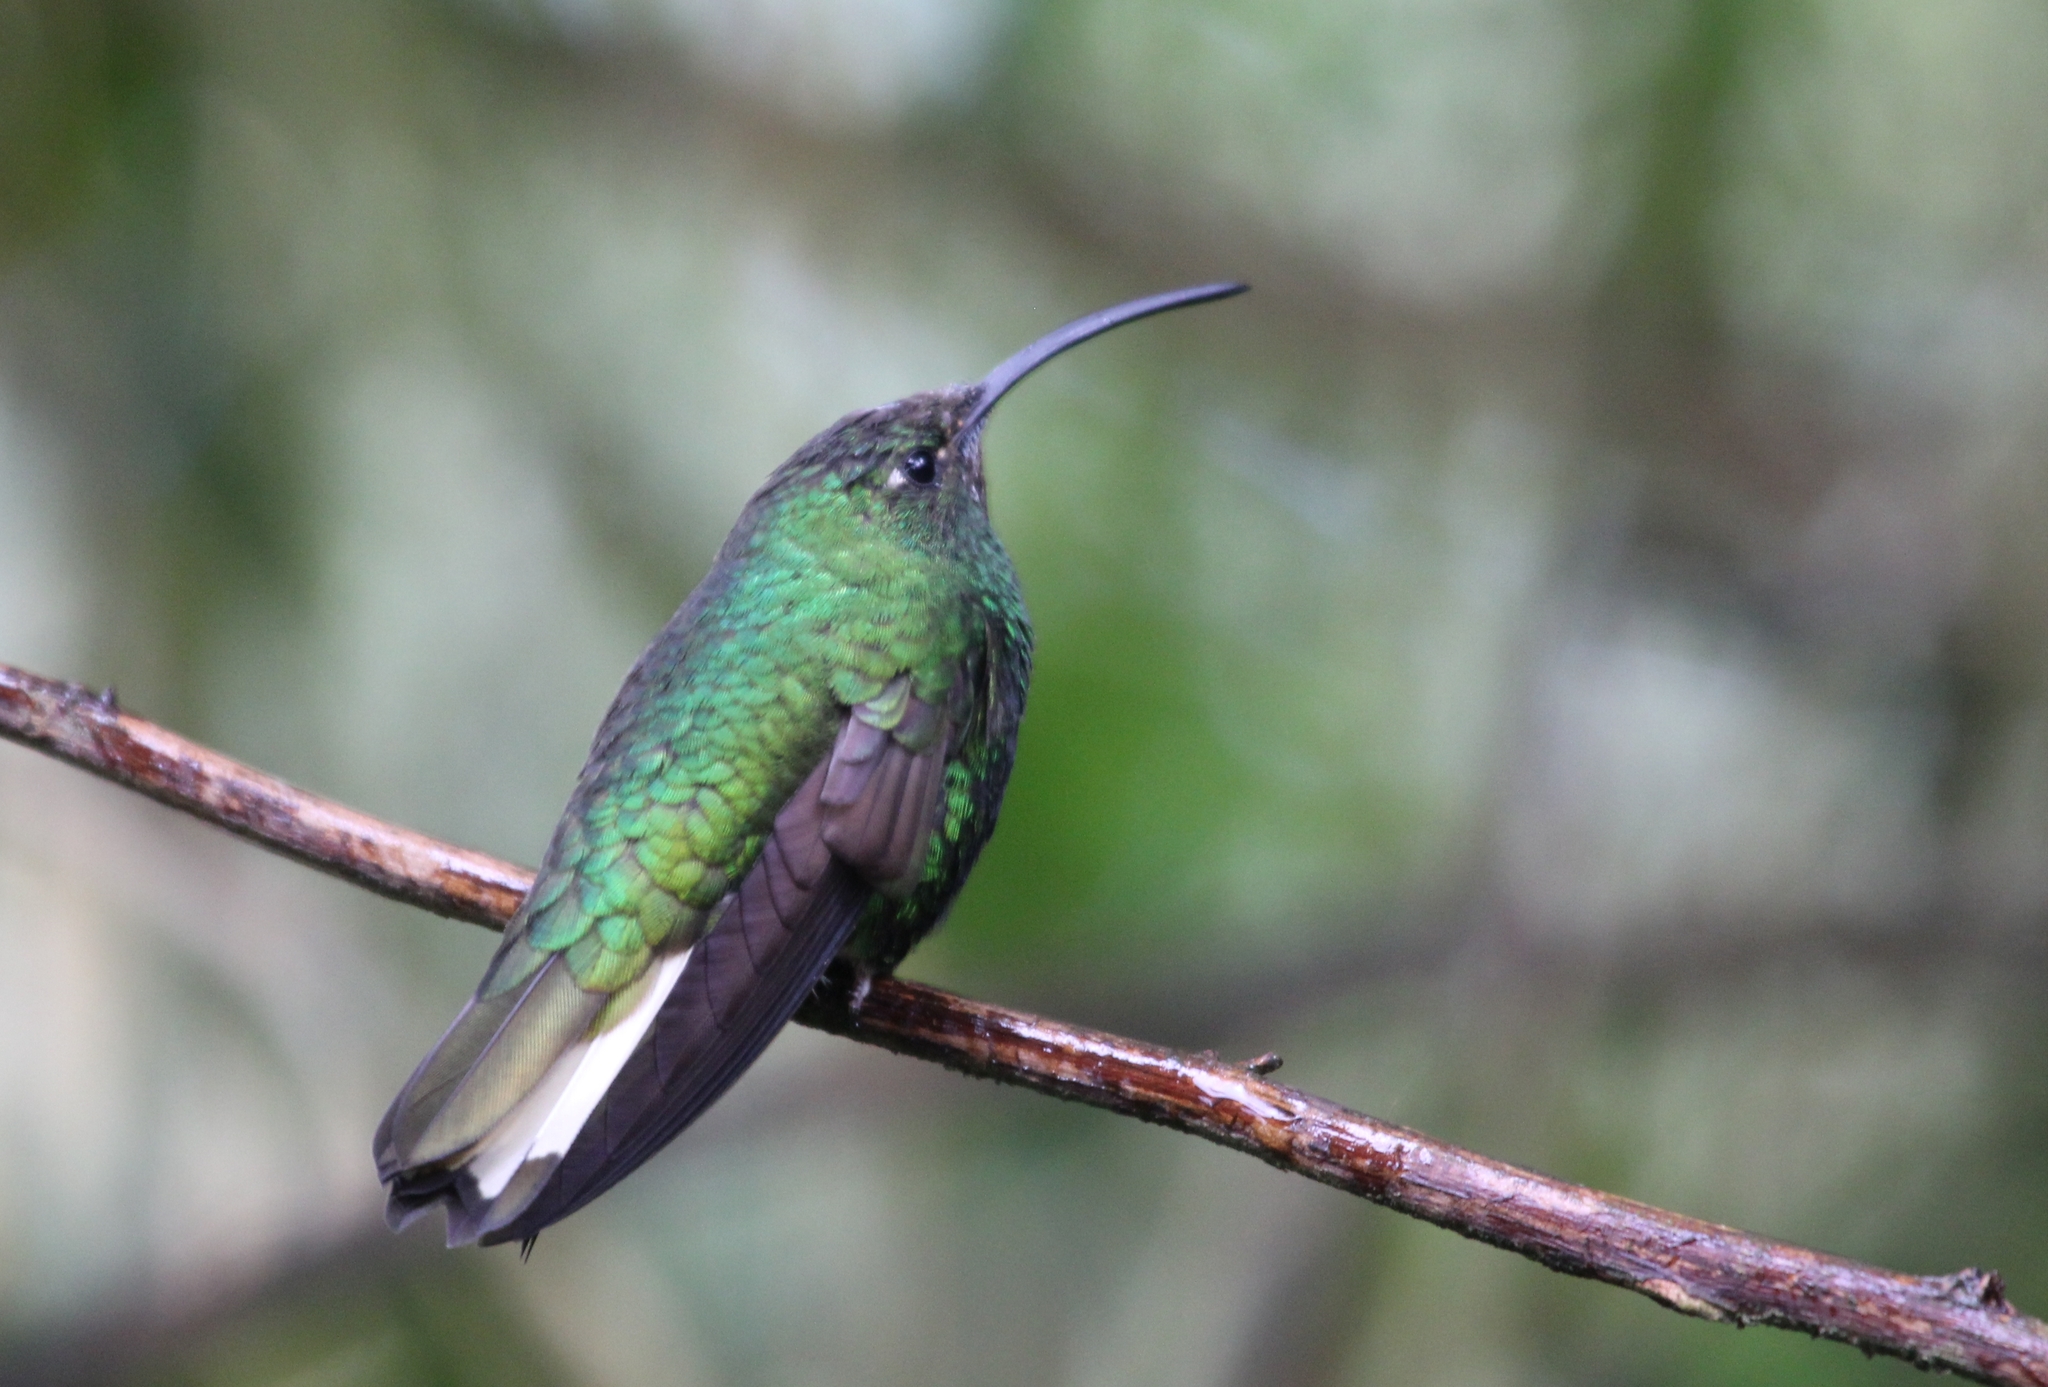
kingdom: Animalia
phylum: Chordata
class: Aves
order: Apodiformes
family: Trochilidae
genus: Lafresnaya
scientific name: Lafresnaya lafresnayi
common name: Mountain velvetbreast
